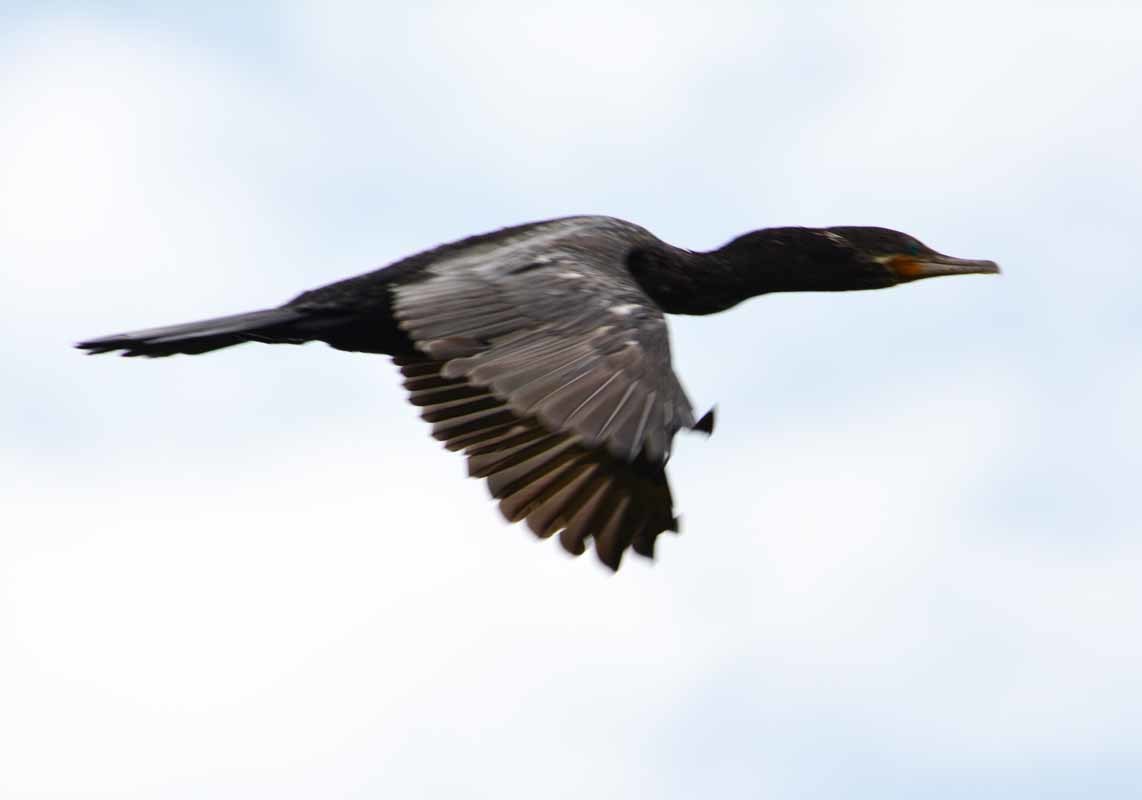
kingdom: Animalia
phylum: Chordata
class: Aves
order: Suliformes
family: Phalacrocoracidae
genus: Phalacrocorax
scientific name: Phalacrocorax brasilianus
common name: Neotropic cormorant
